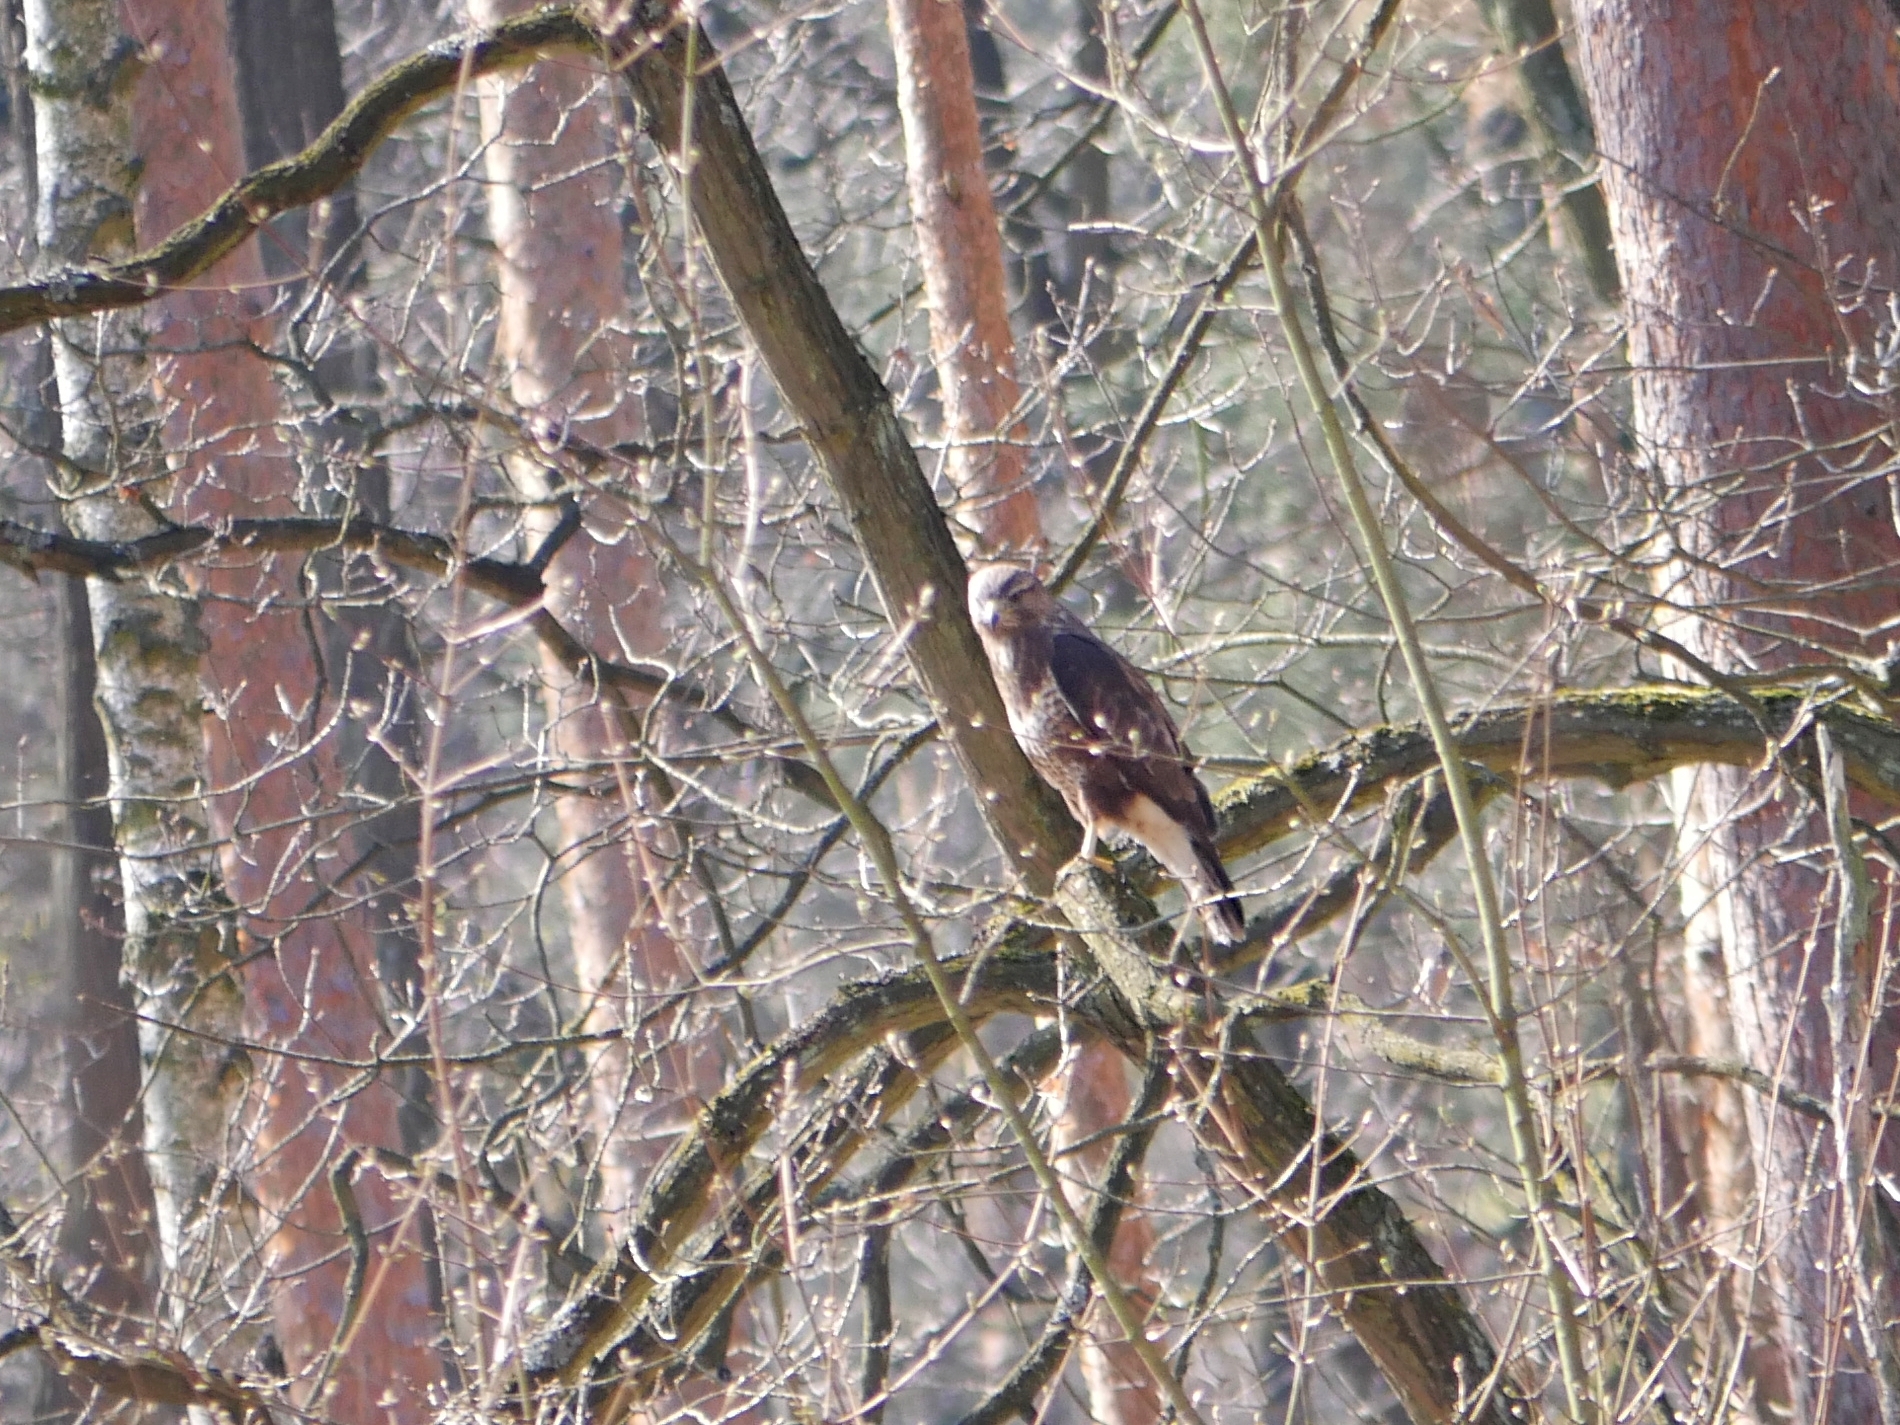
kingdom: Animalia
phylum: Chordata
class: Aves
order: Accipitriformes
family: Accipitridae
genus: Buteo
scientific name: Buteo buteo
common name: Common buzzard
